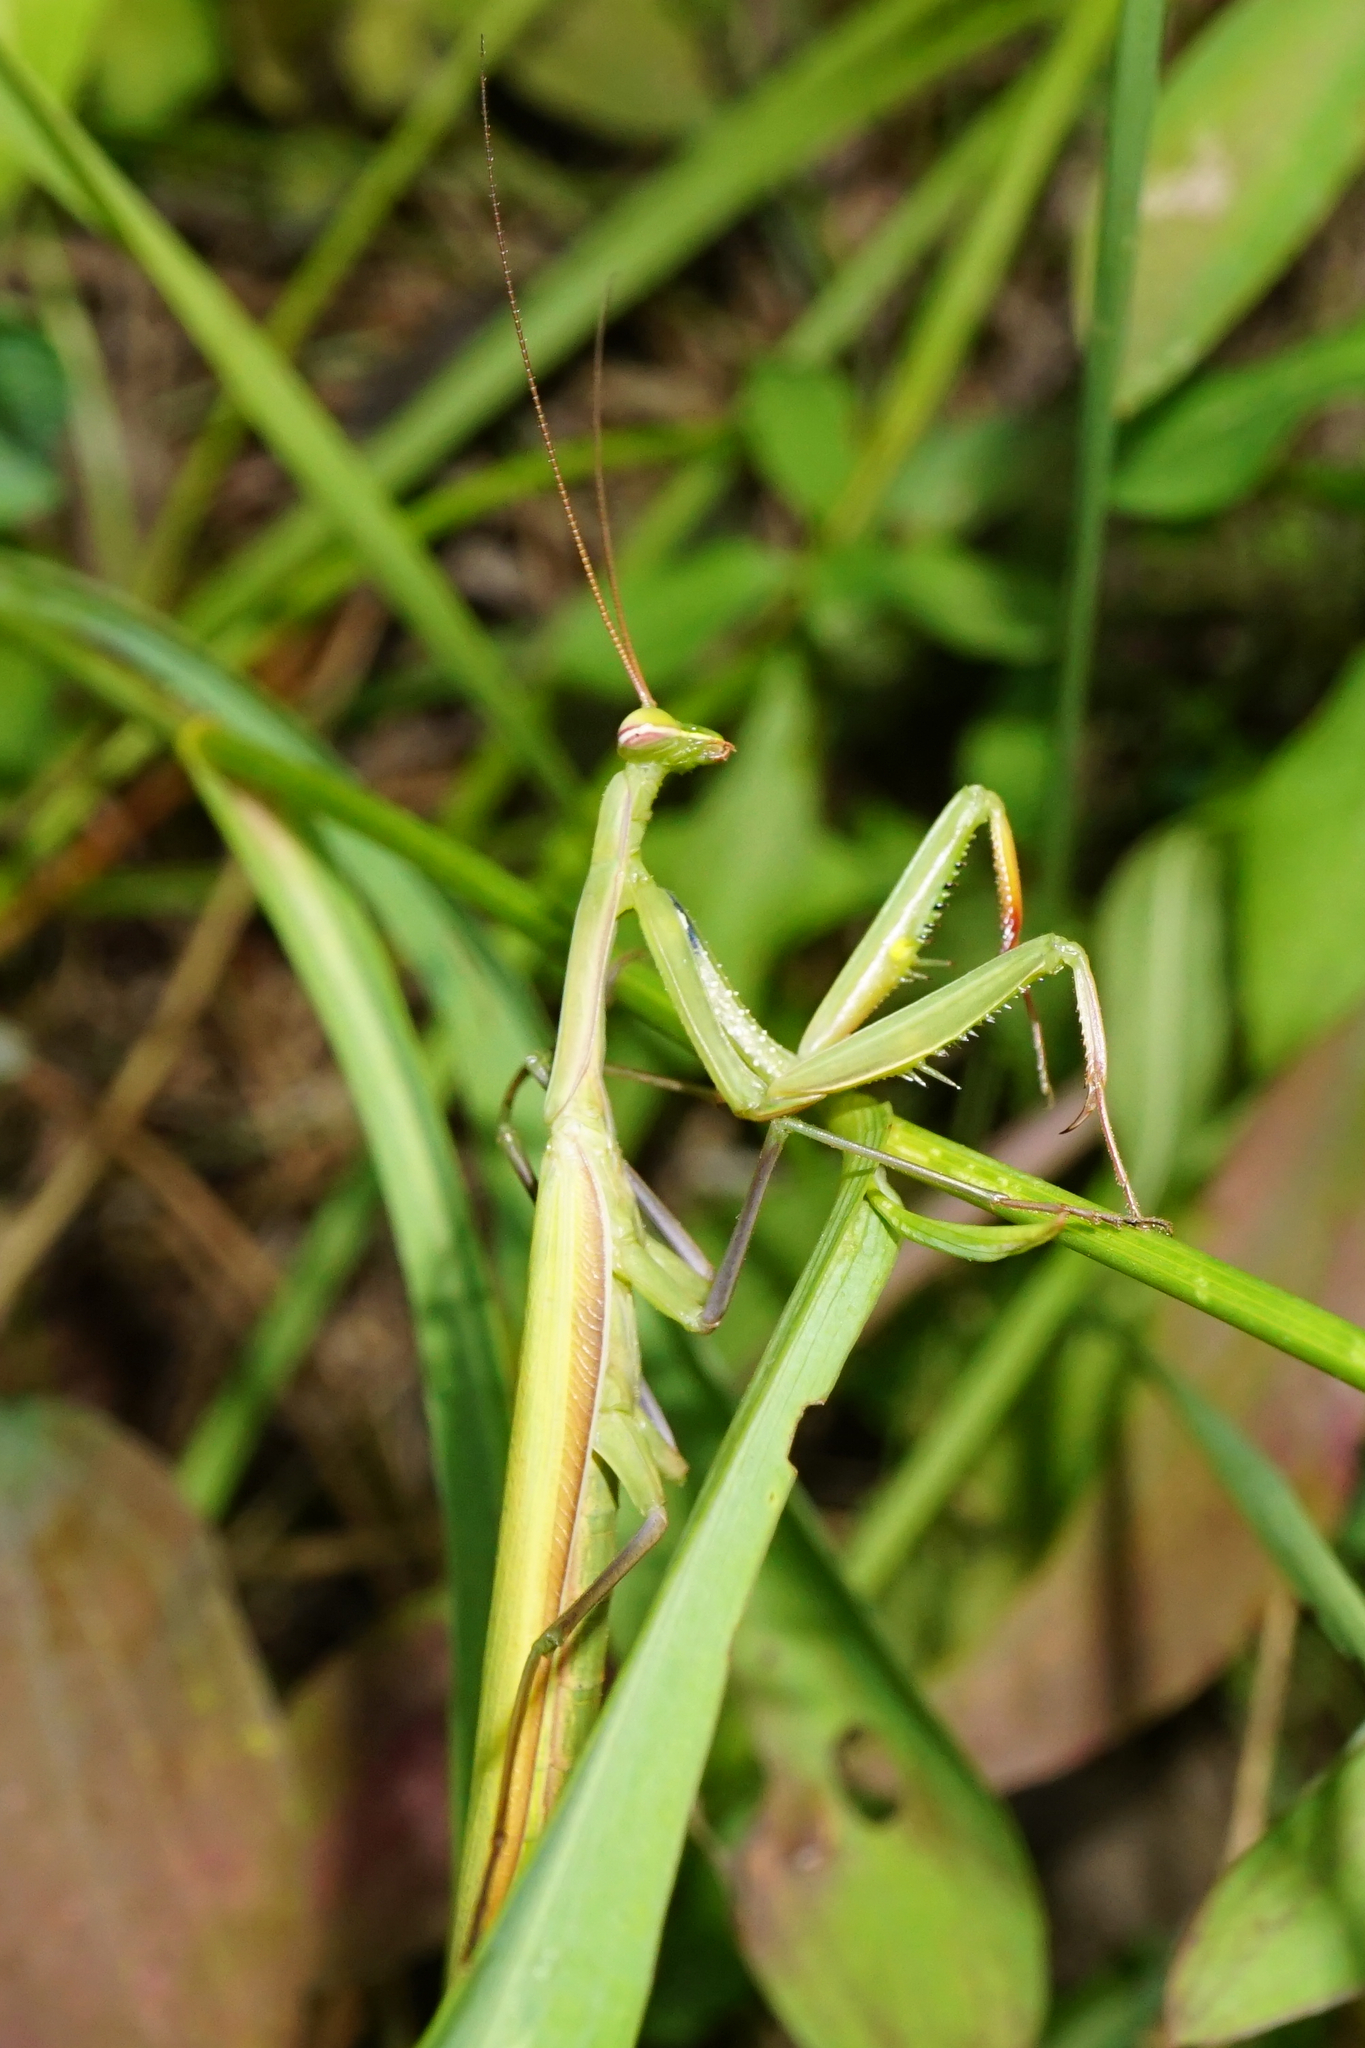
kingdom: Animalia
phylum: Arthropoda
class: Insecta
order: Mantodea
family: Mantidae
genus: Mantis
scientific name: Mantis religiosa
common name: Praying mantis
